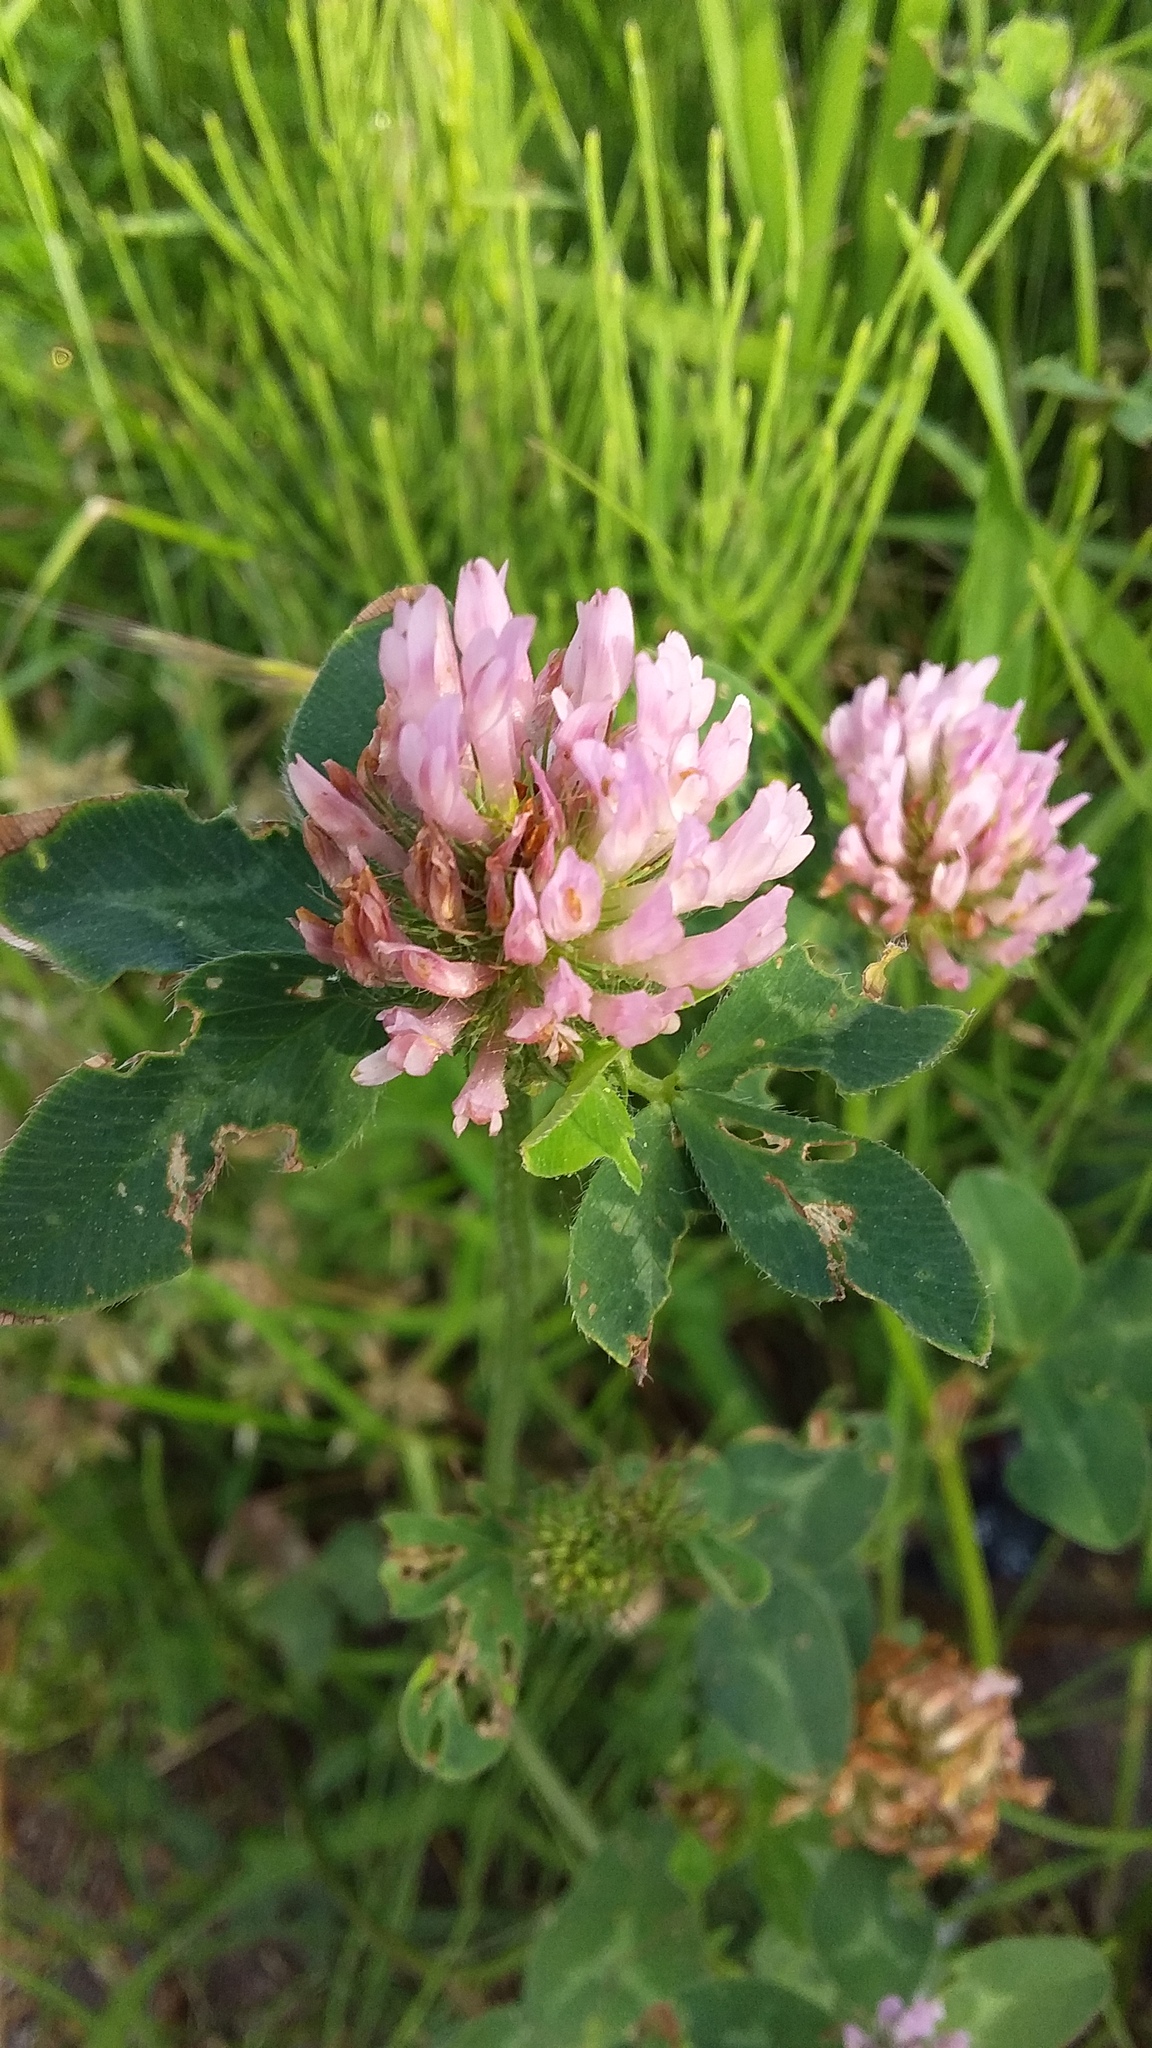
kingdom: Plantae
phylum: Tracheophyta
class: Magnoliopsida
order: Fabales
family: Fabaceae
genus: Trifolium
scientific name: Trifolium pratense
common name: Red clover
